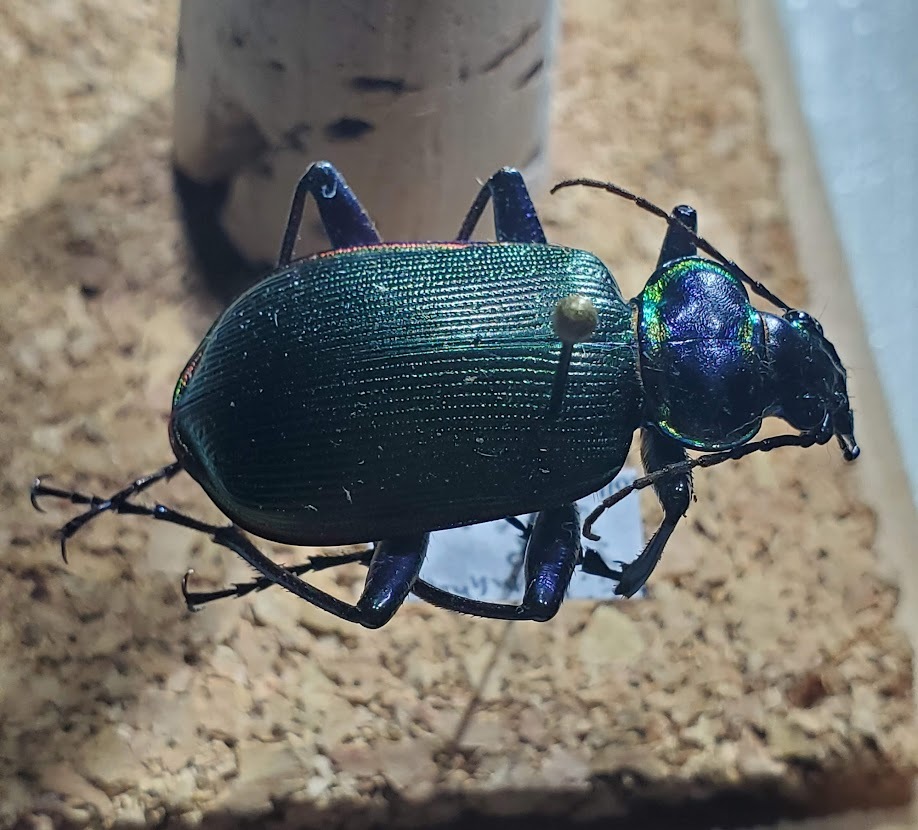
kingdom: Animalia
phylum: Arthropoda
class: Insecta
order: Coleoptera
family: Carabidae
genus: Calosoma
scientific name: Calosoma scrutator
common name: Fiery searcher beetle
